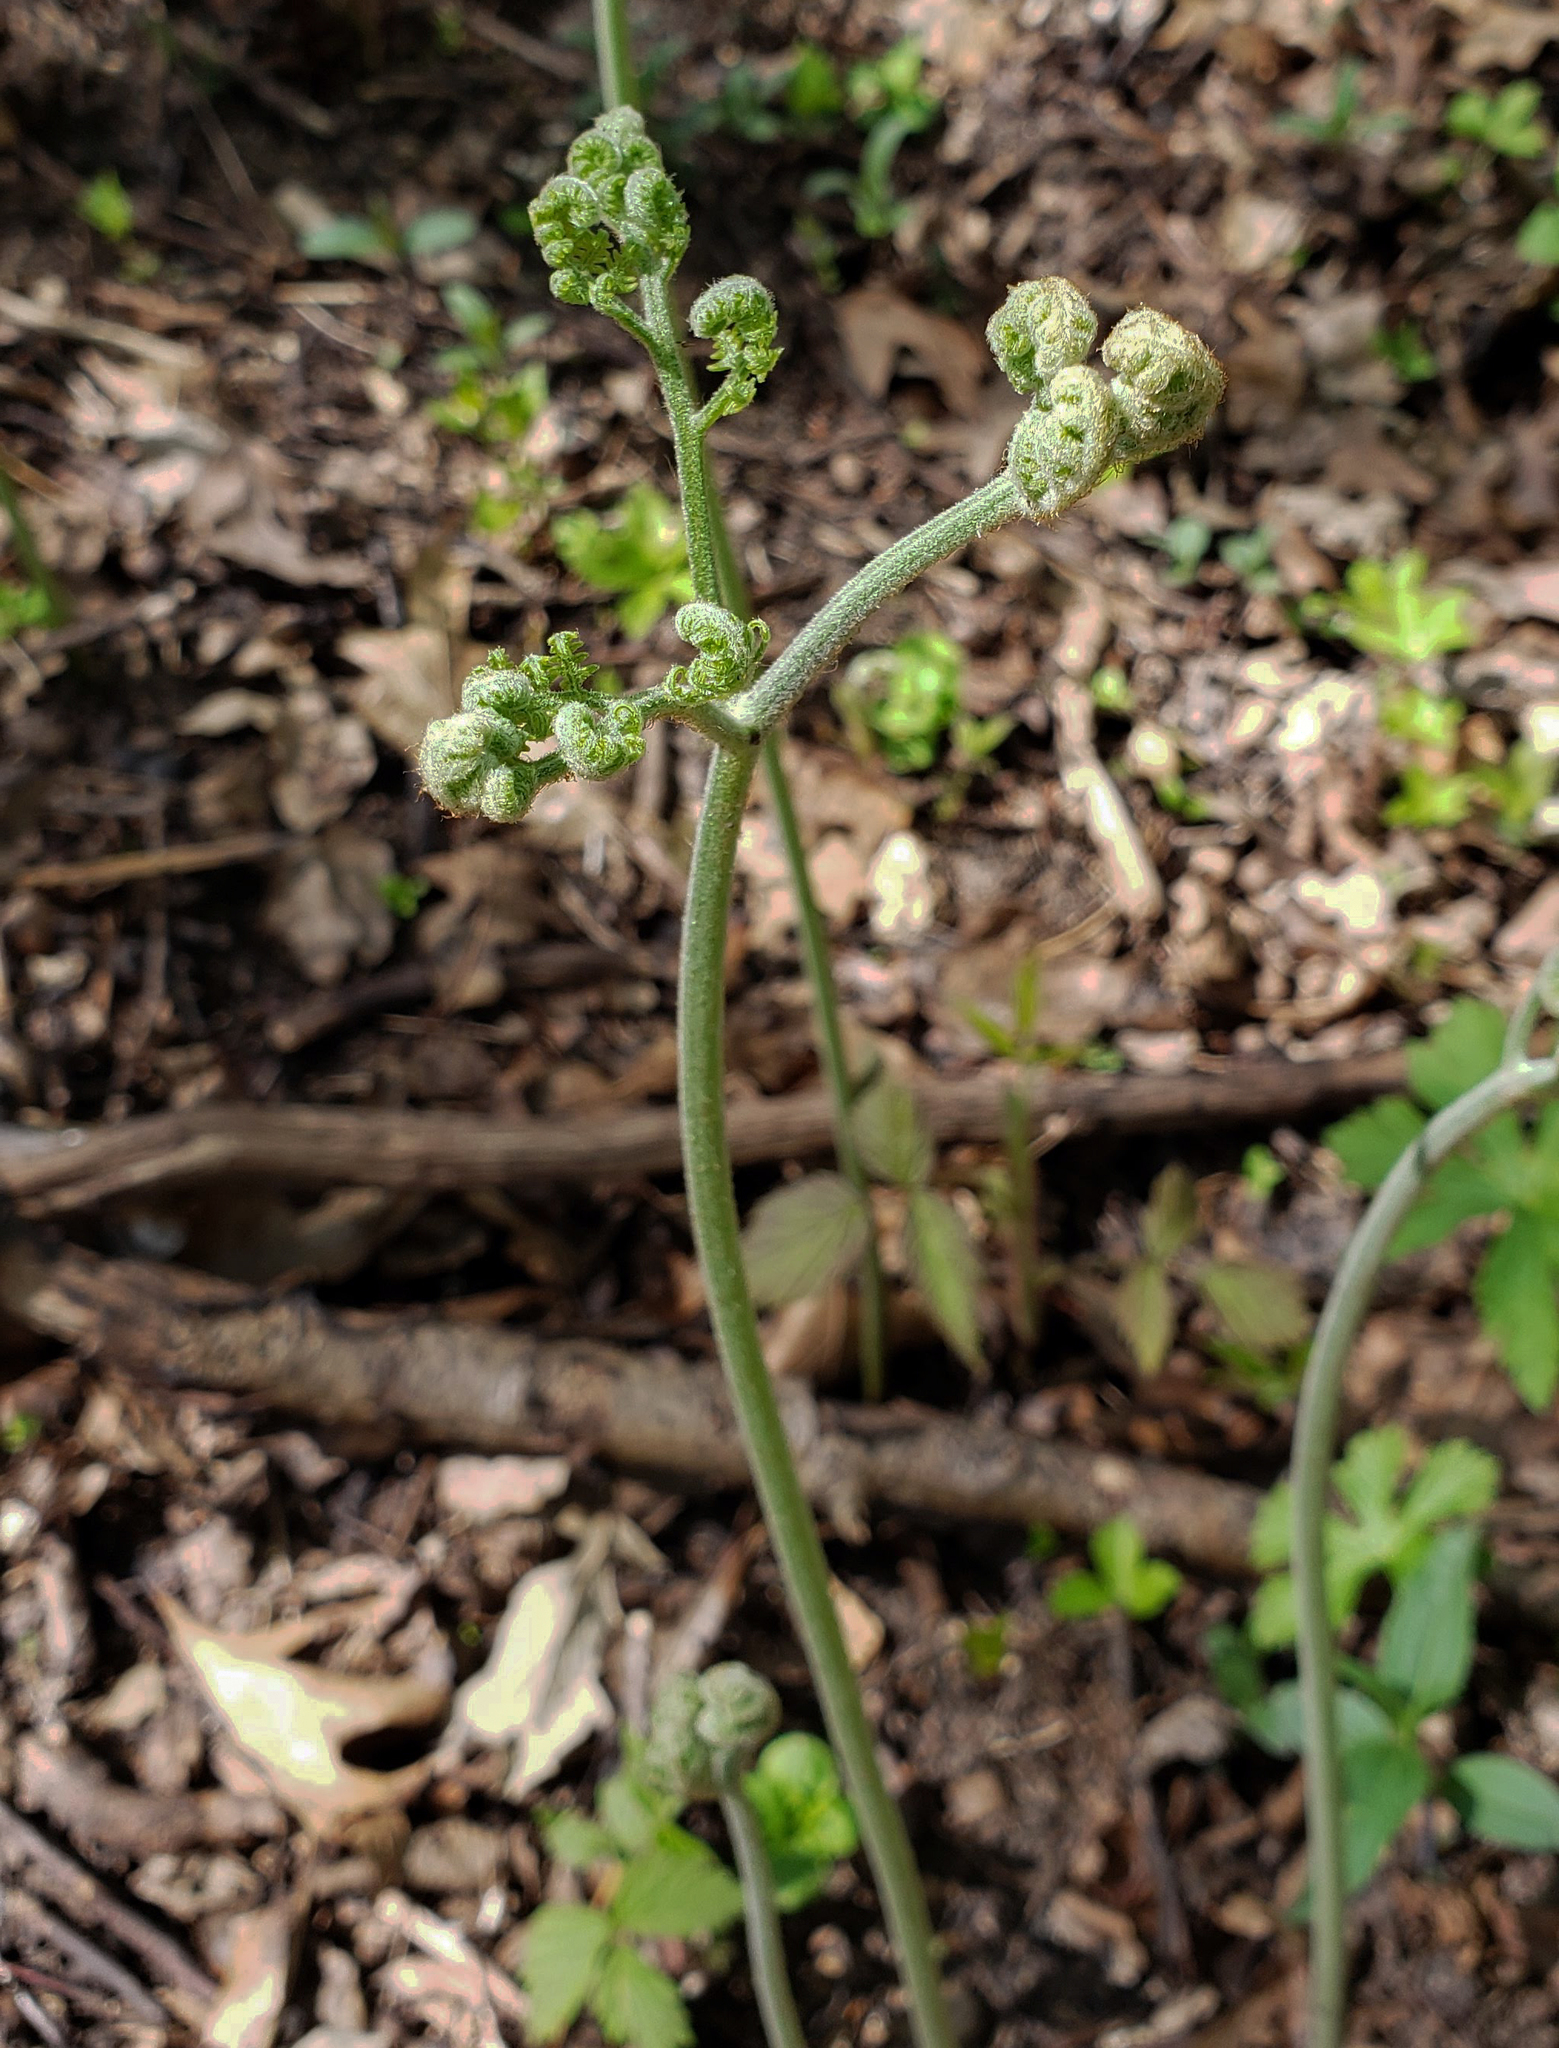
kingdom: Plantae
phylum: Tracheophyta
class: Polypodiopsida
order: Polypodiales
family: Dennstaedtiaceae
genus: Pteridium
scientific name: Pteridium aquilinum
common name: Bracken
